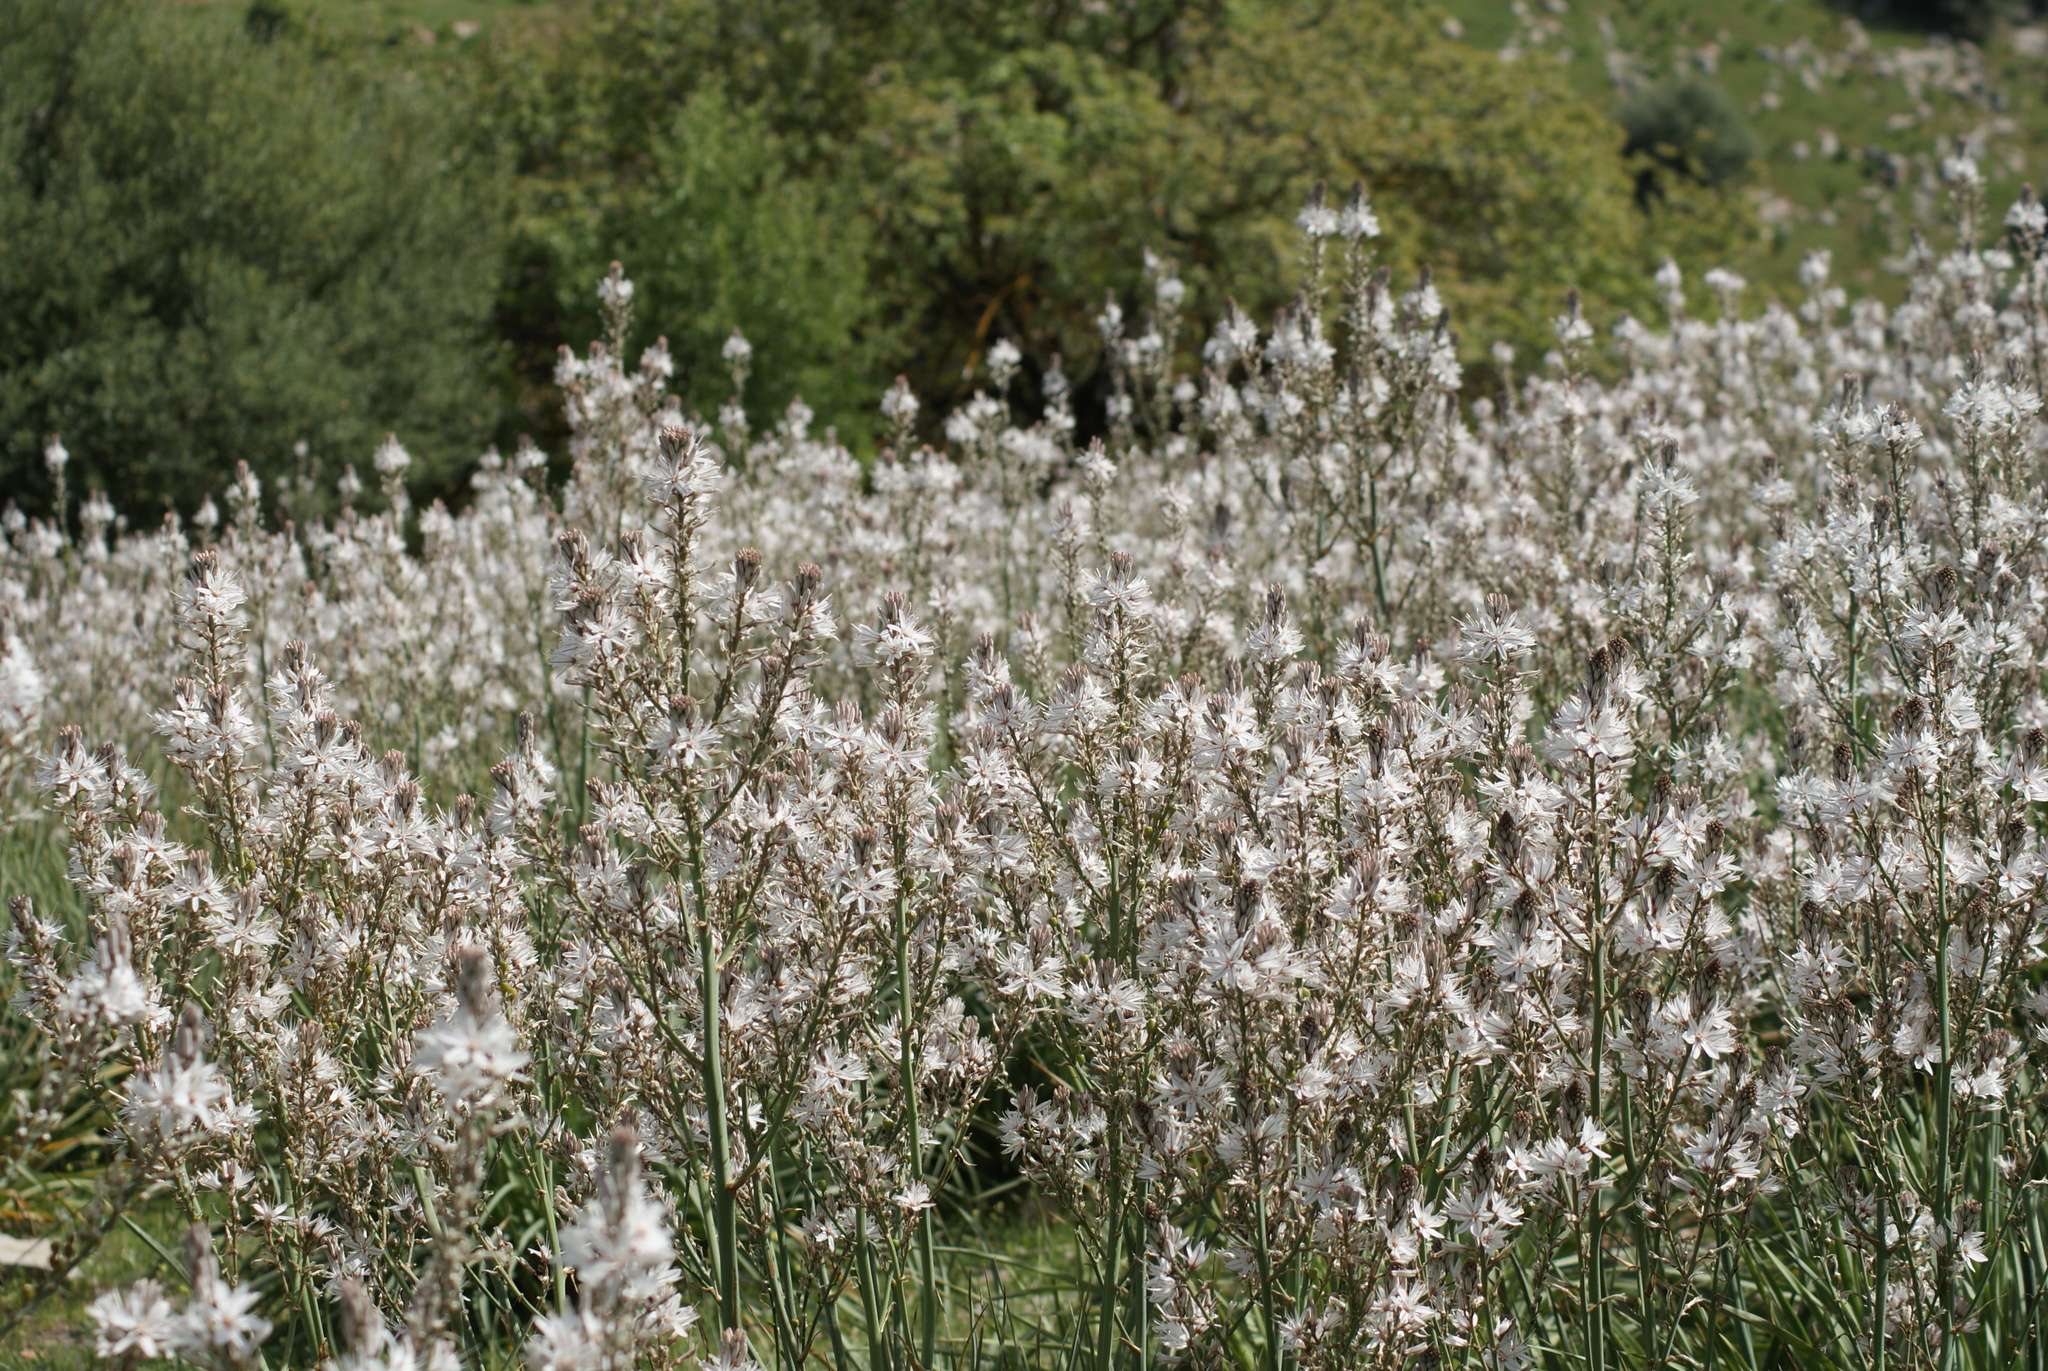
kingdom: Plantae
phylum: Tracheophyta
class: Liliopsida
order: Asparagales
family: Asphodelaceae
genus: Asphodelus
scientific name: Asphodelus ramosus
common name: Silverrod
